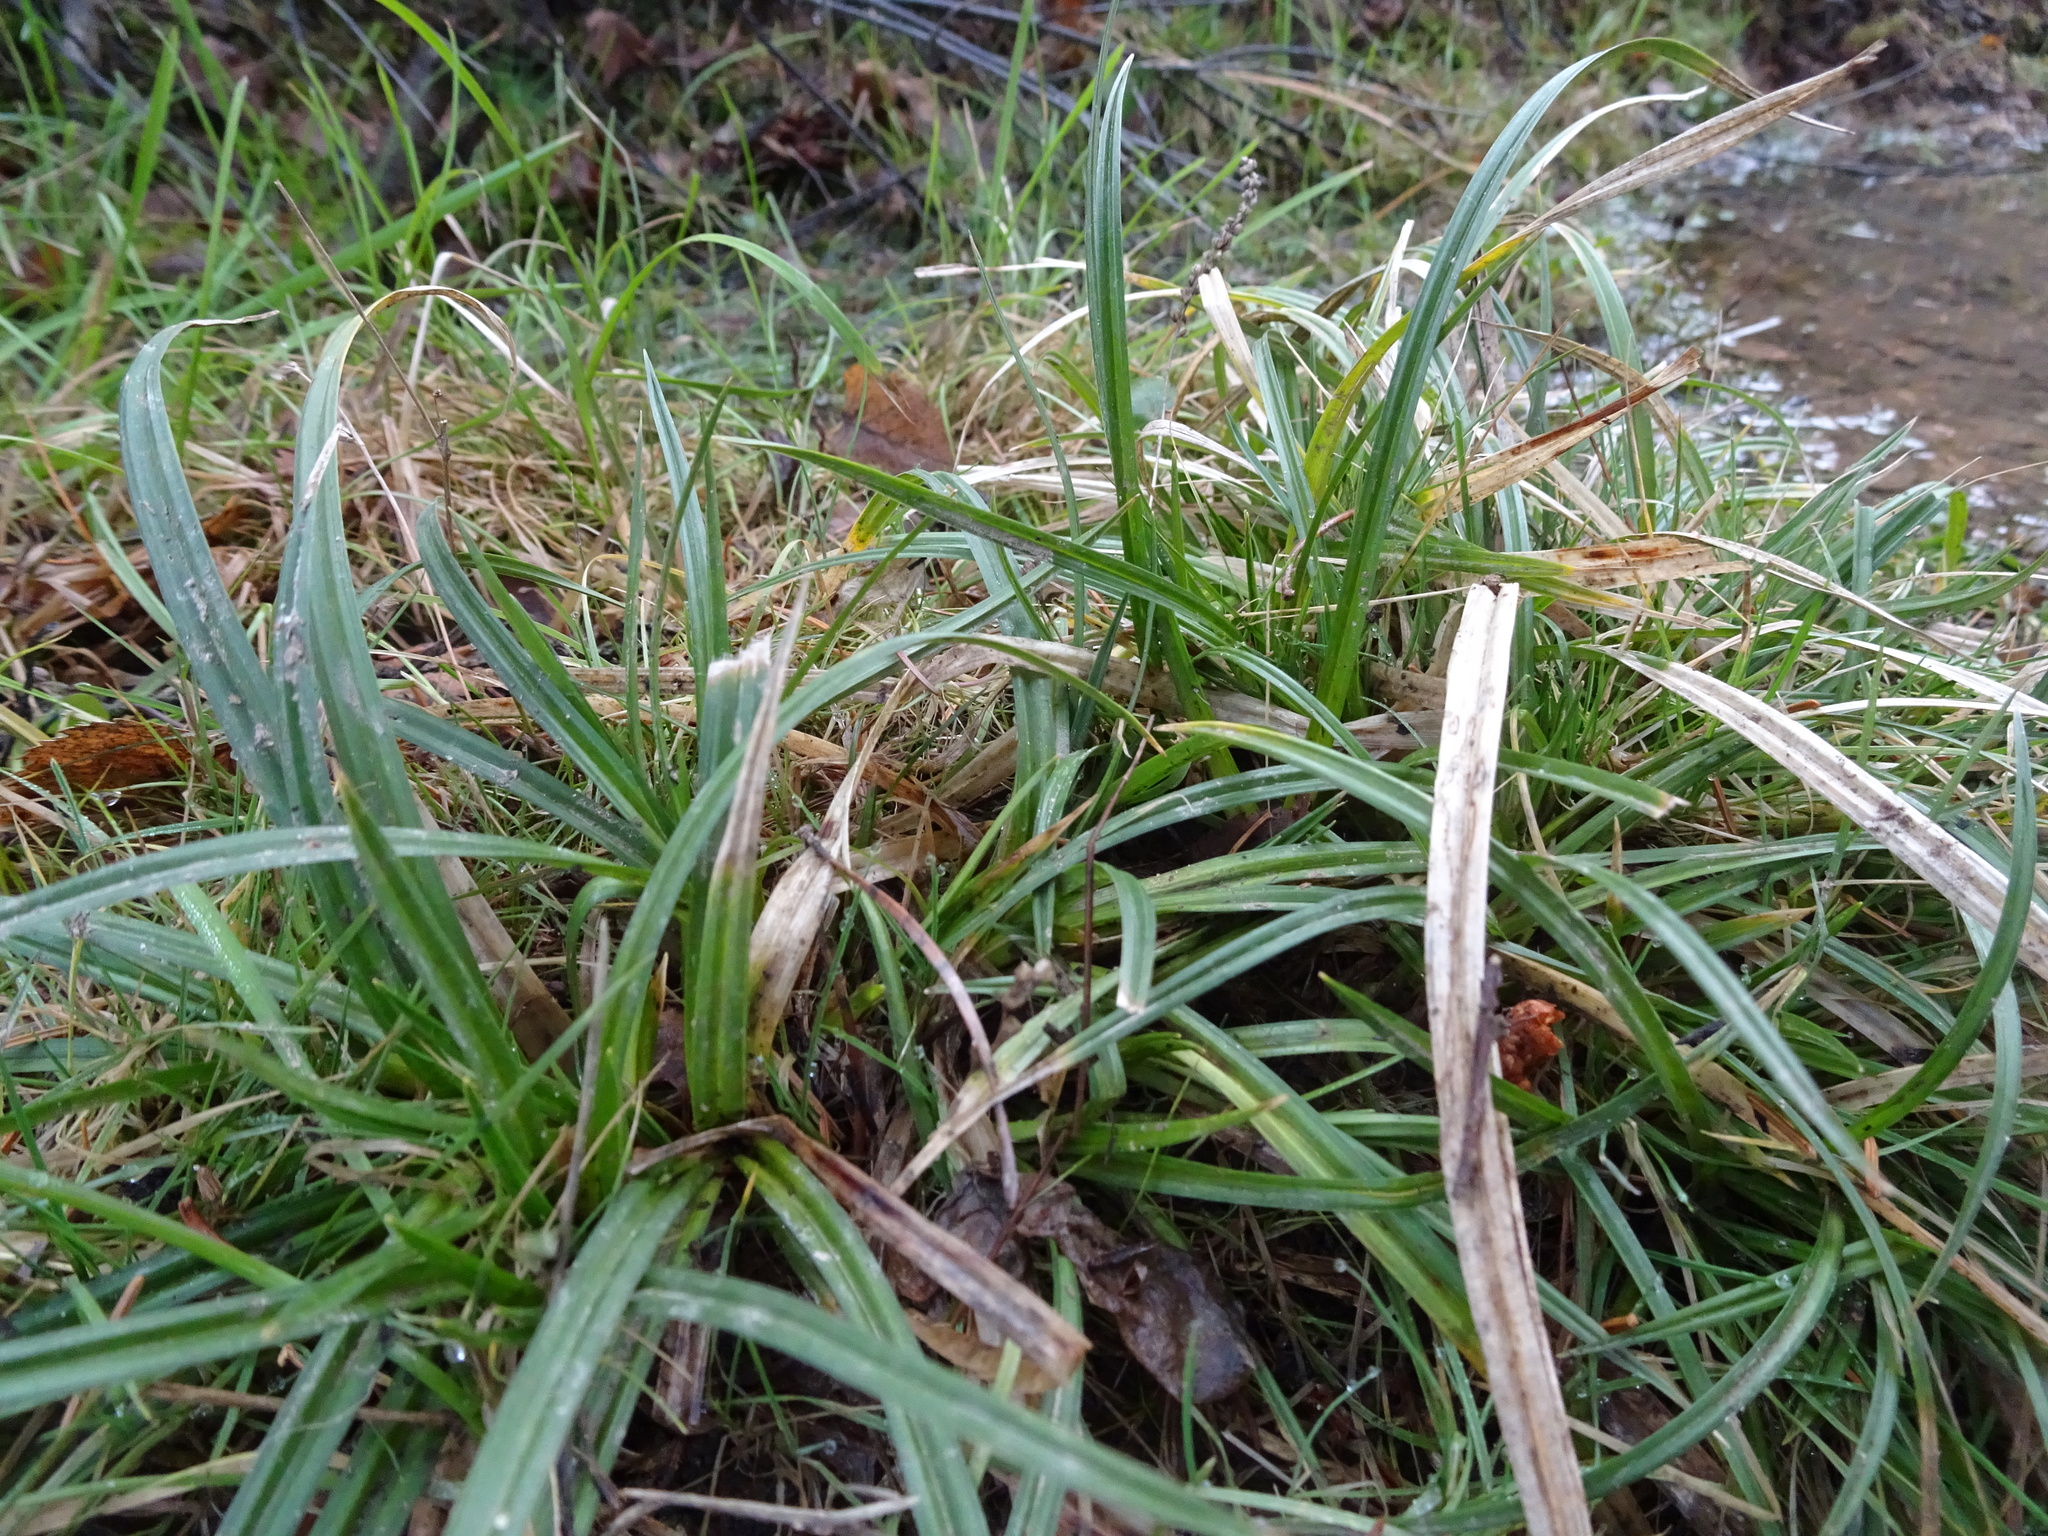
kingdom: Plantae
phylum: Tracheophyta
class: Liliopsida
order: Poales
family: Cyperaceae
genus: Carex
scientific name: Carex sylvatica
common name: Wood-sedge
